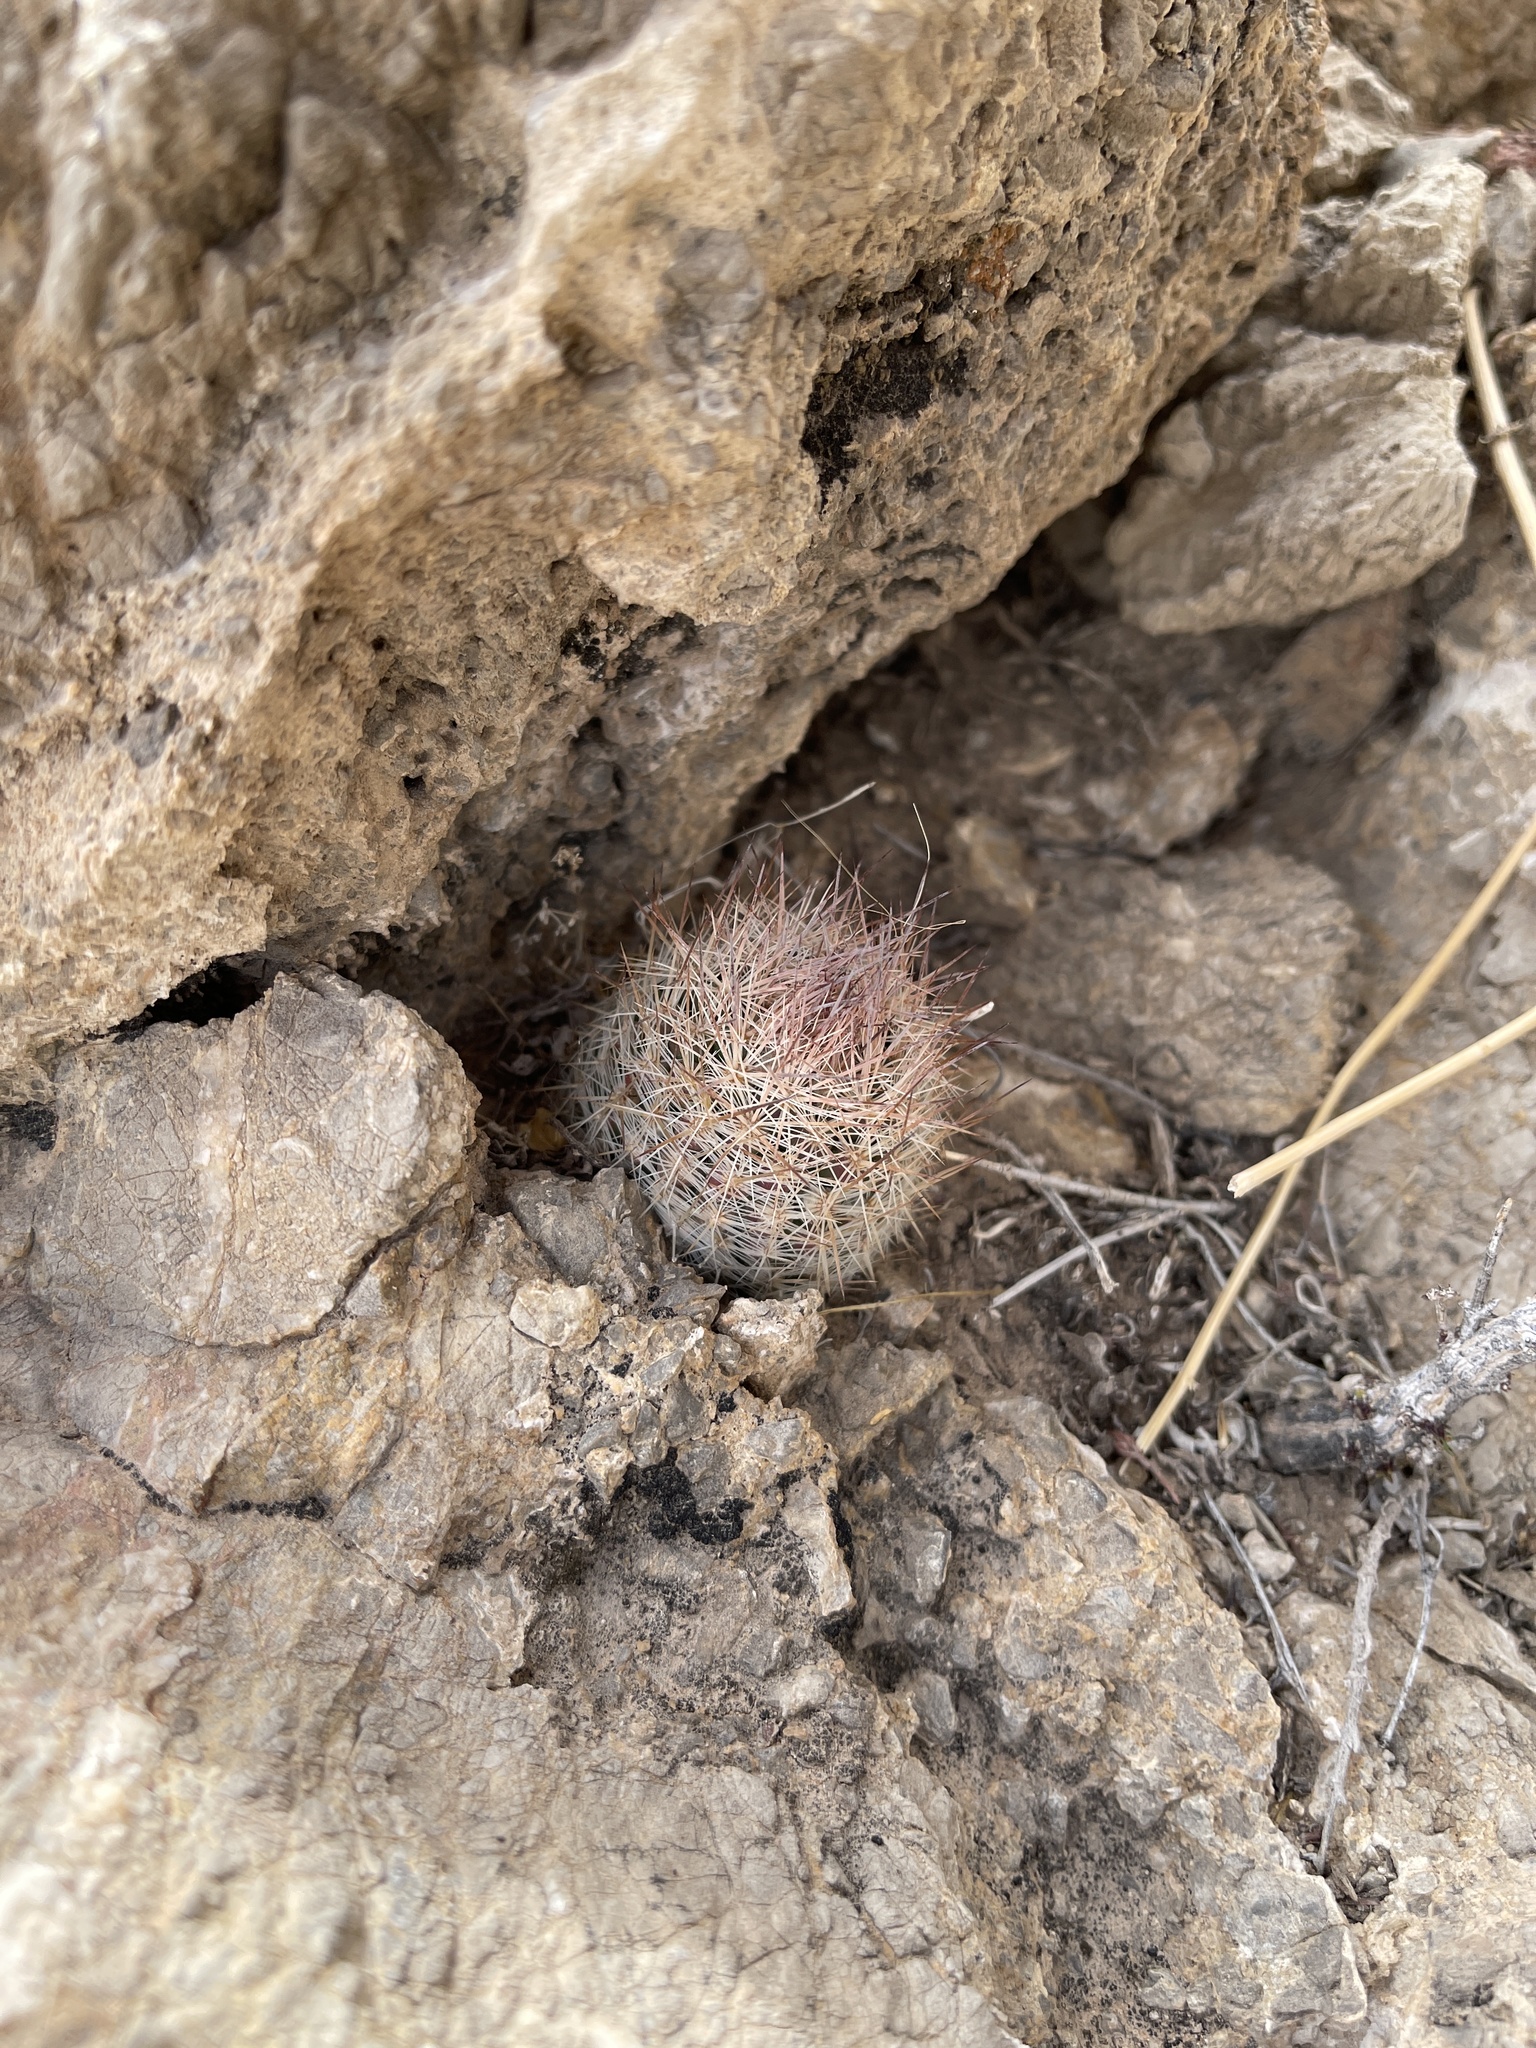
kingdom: Plantae
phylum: Tracheophyta
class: Magnoliopsida
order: Caryophyllales
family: Cactaceae
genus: Pelecyphora
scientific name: Pelecyphora tuberculosa
